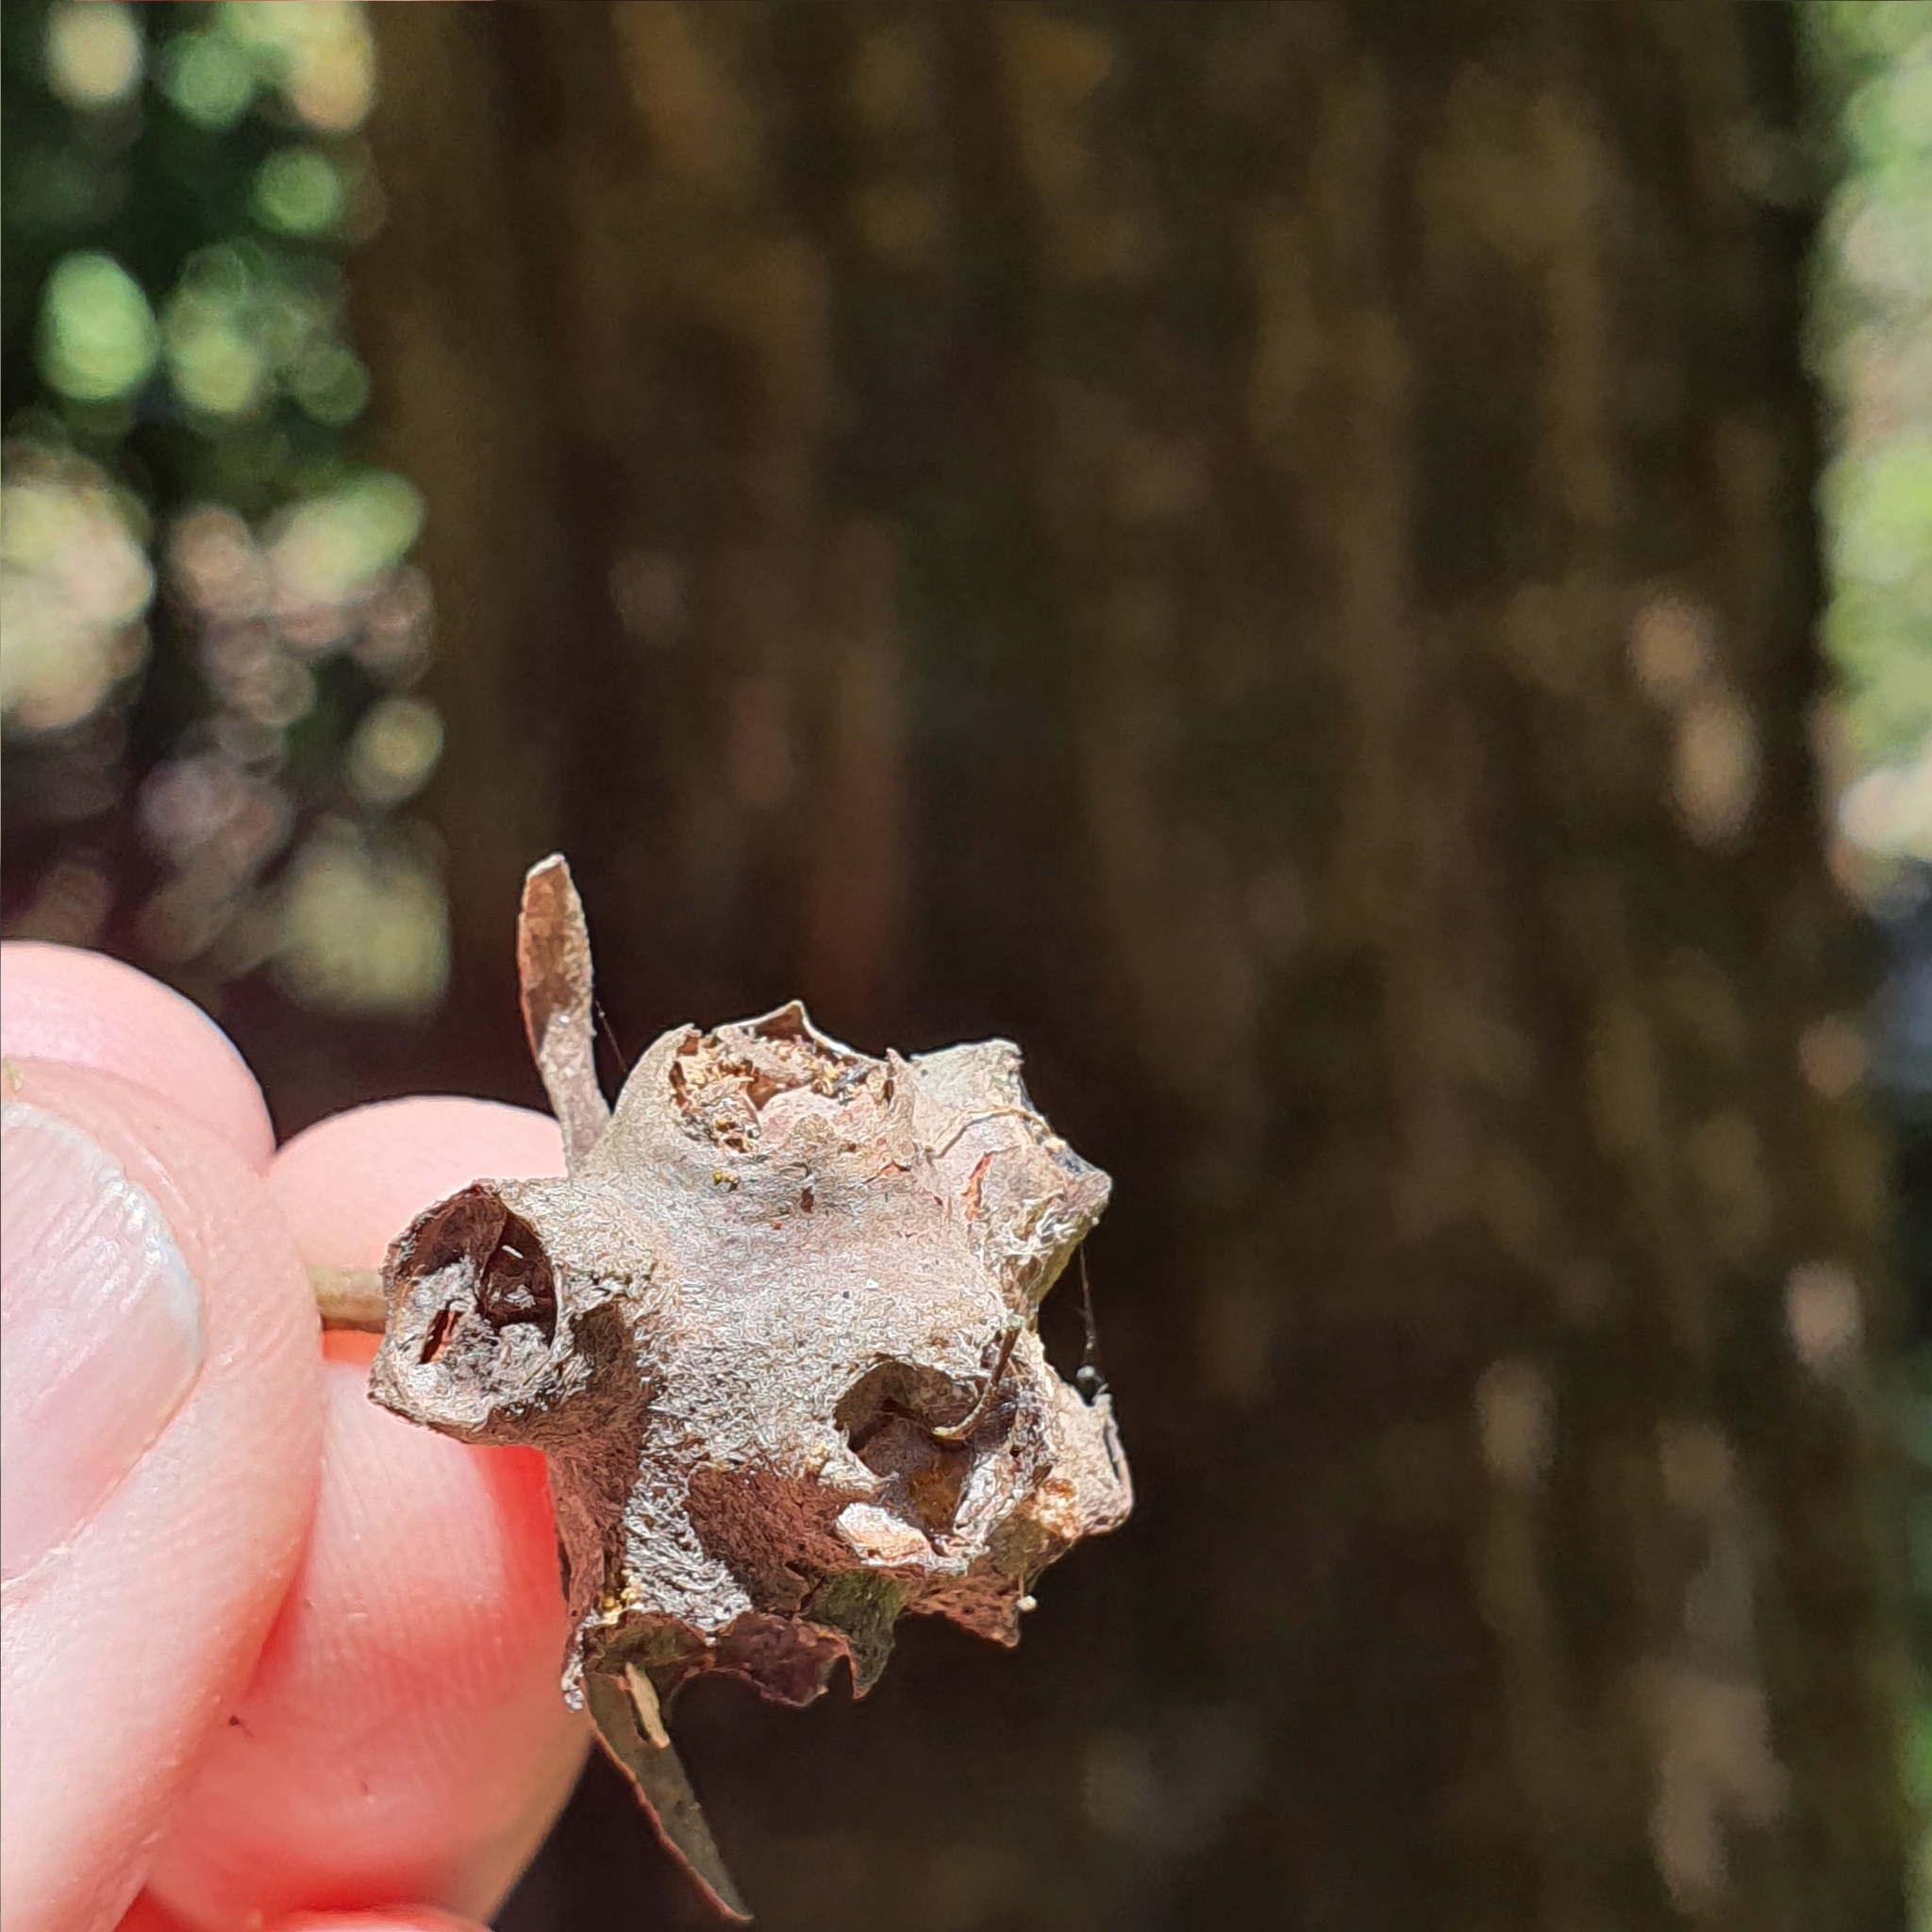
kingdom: Plantae
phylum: Tracheophyta
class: Magnoliopsida
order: Myrtales
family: Myrtaceae
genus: Syncarpia
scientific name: Syncarpia glomulifera
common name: Turpentine tree
